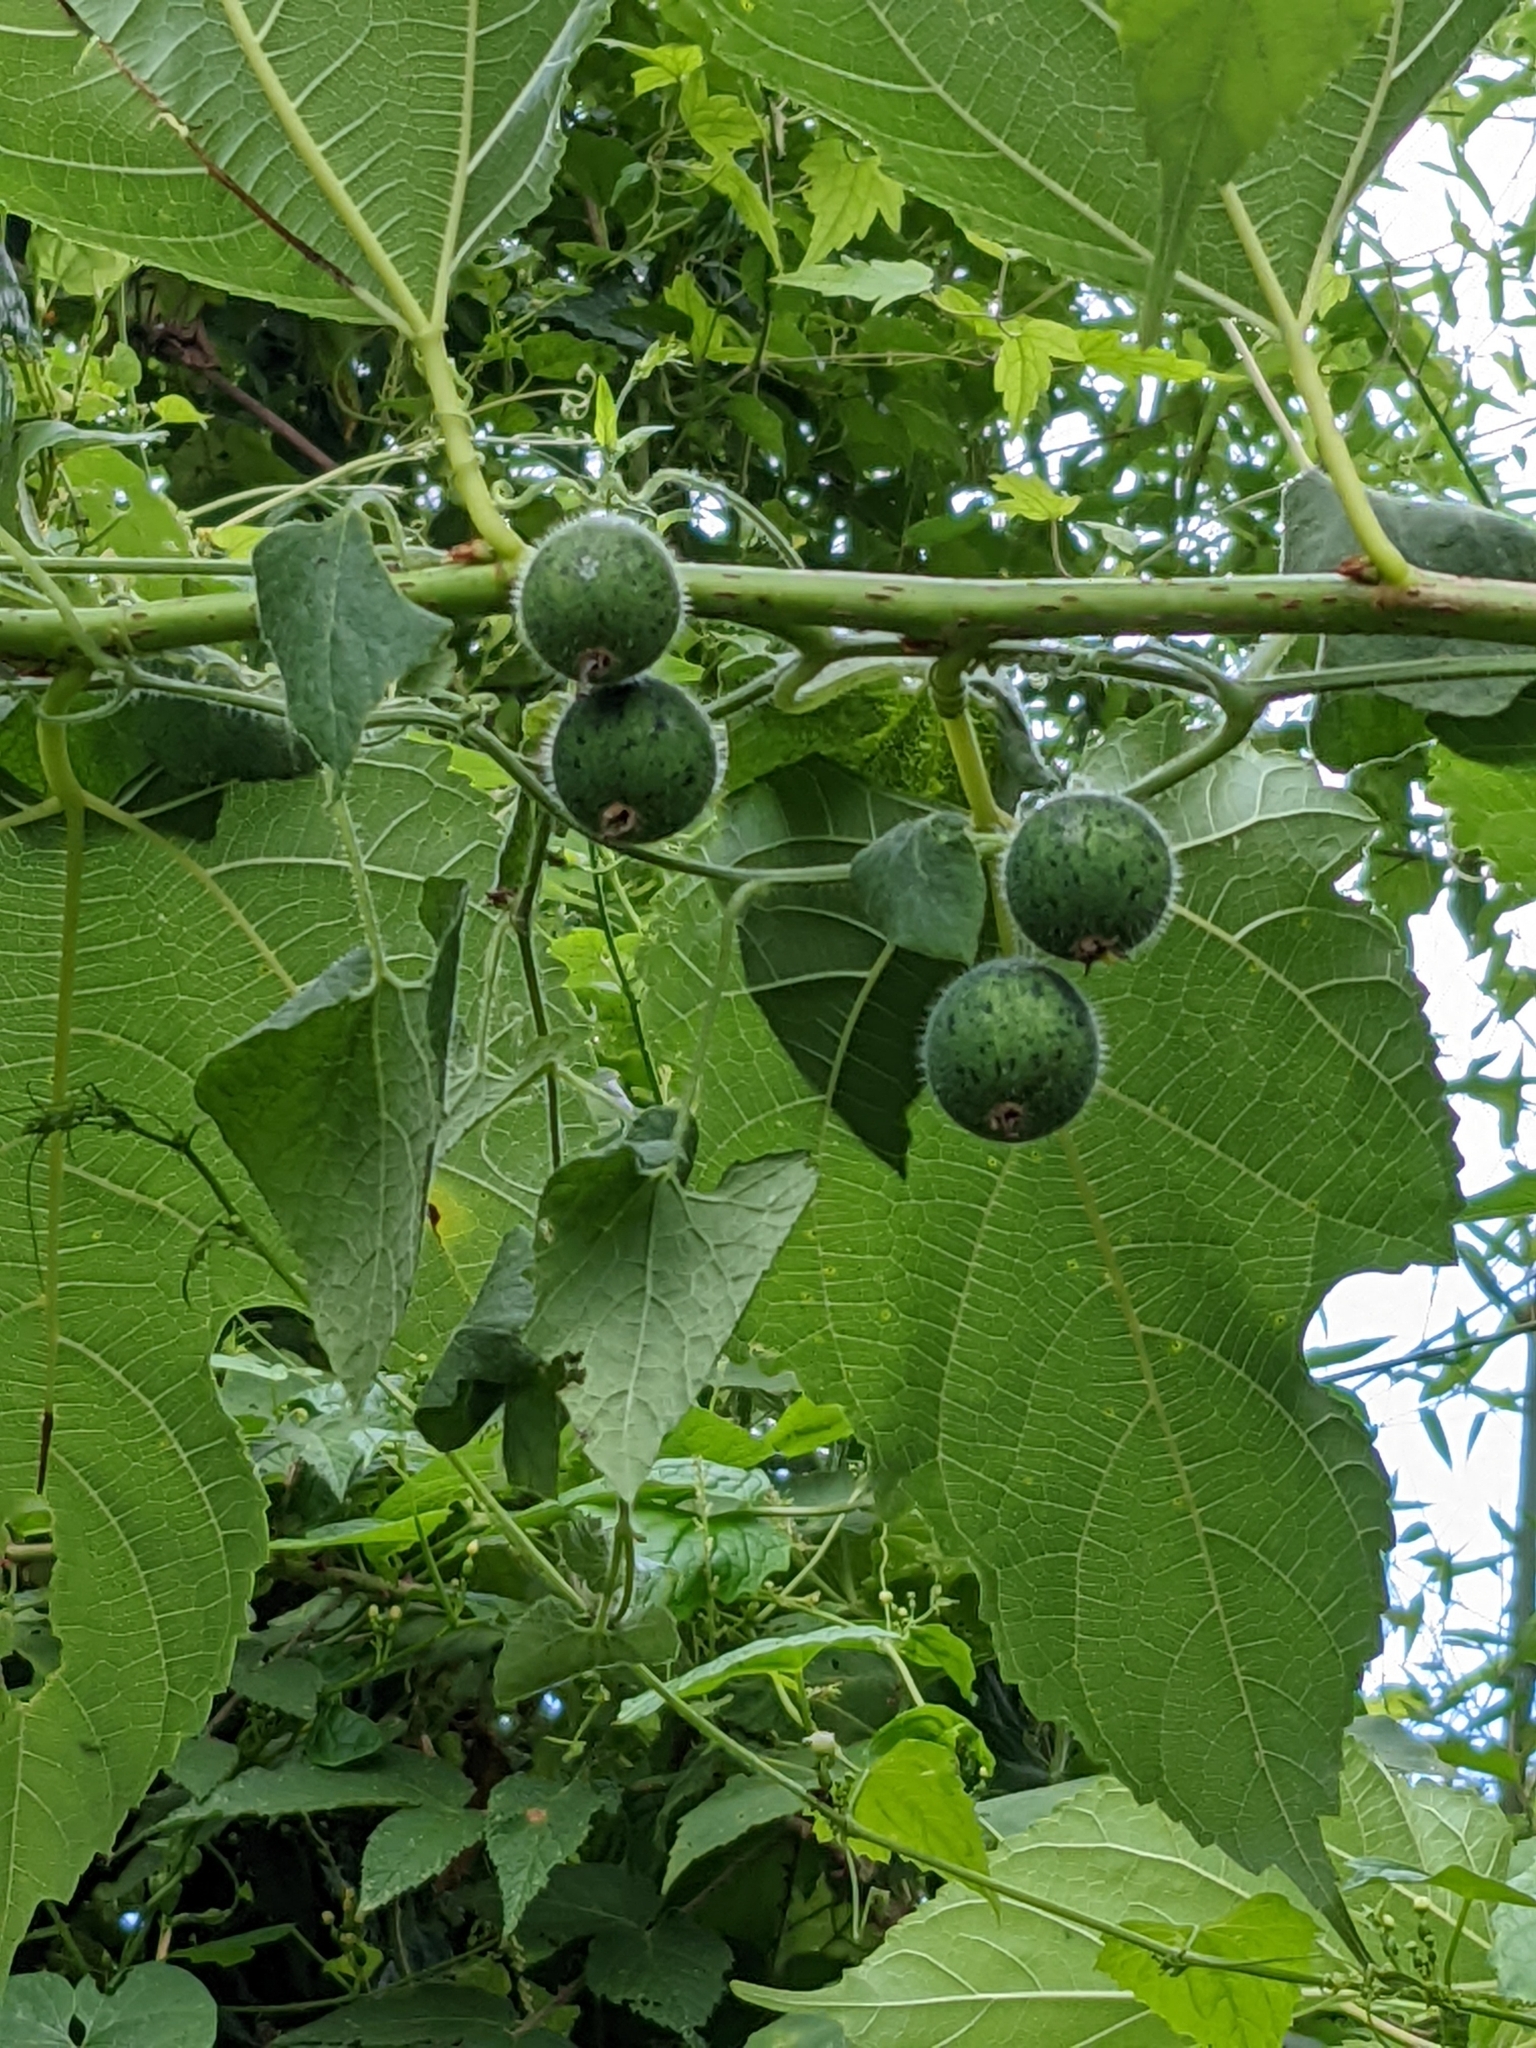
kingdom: Plantae
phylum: Tracheophyta
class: Magnoliopsida
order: Cucurbitales
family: Cucurbitaceae
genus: Thladiantha
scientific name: Thladiantha nudiflora
